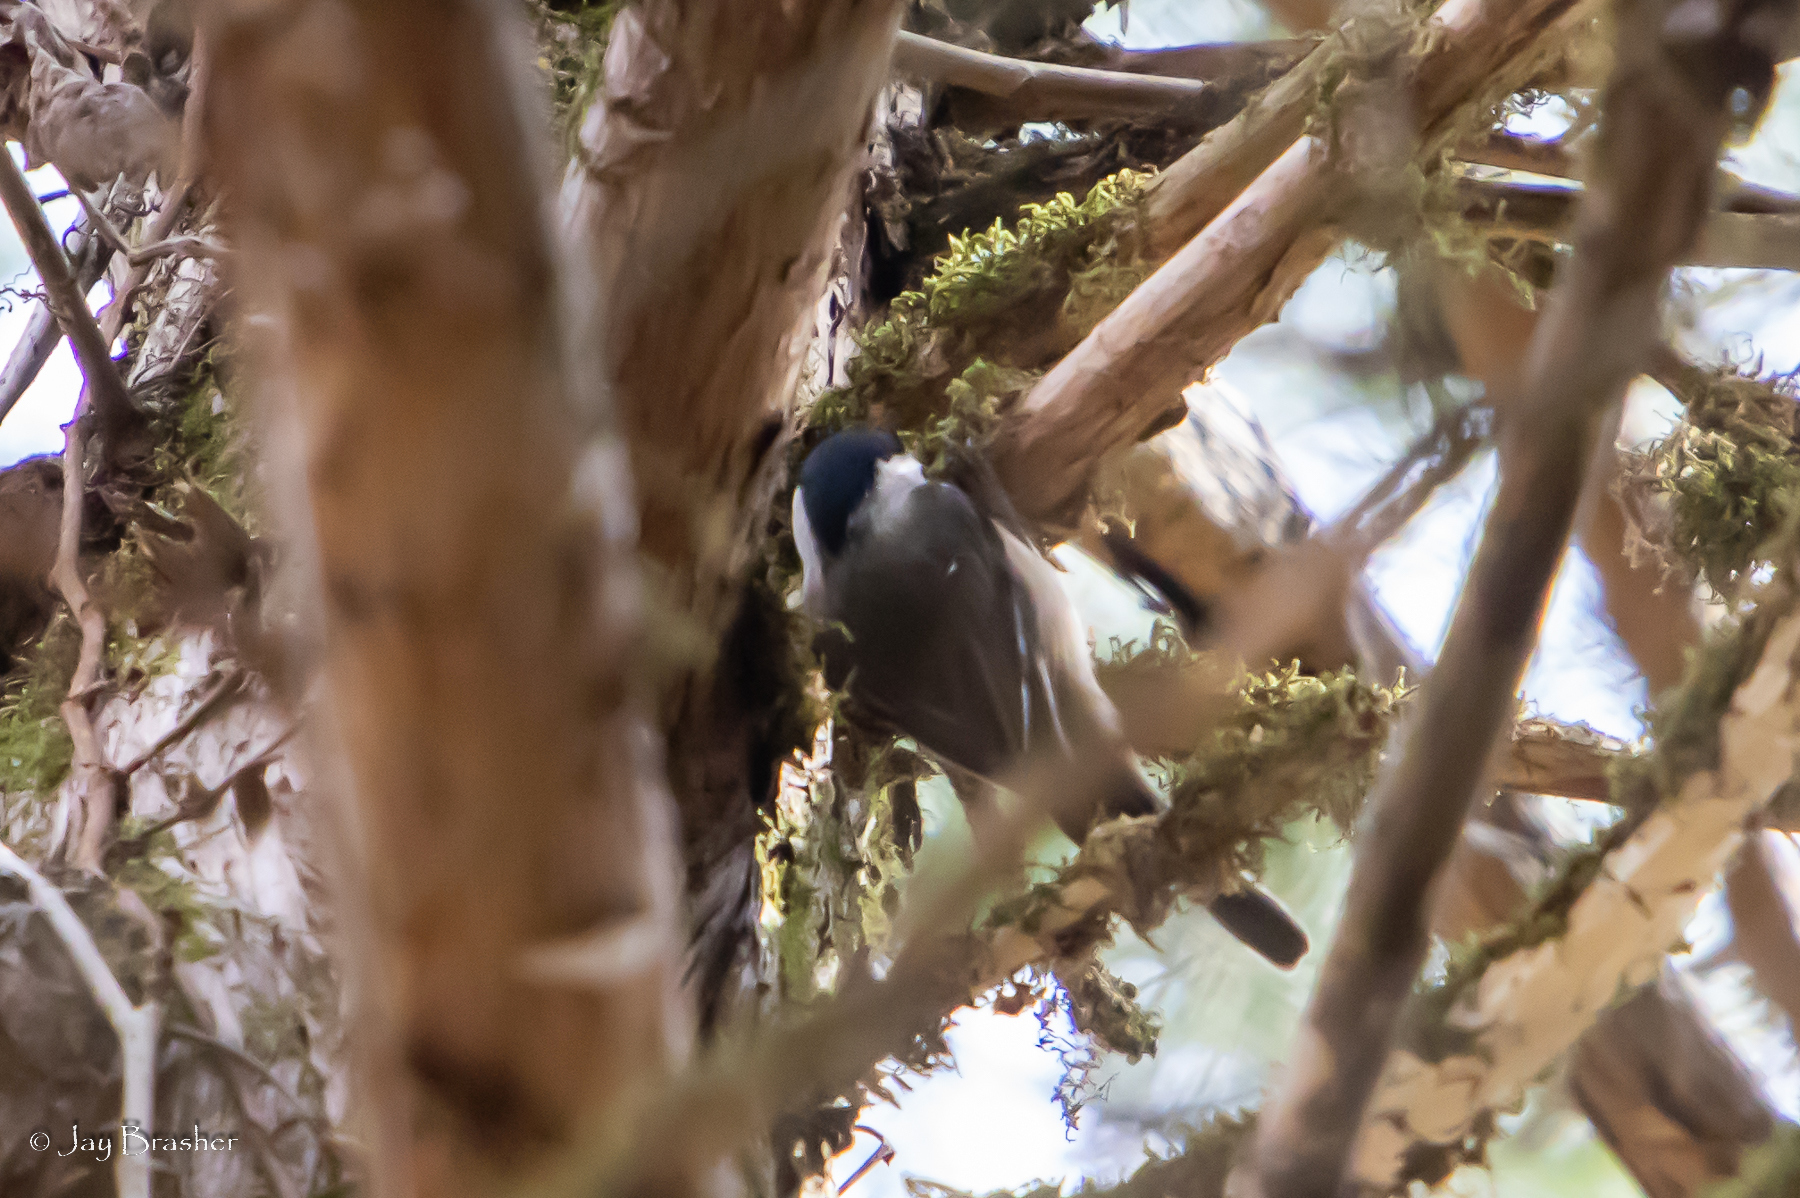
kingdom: Animalia
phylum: Chordata
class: Aves
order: Passeriformes
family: Paridae
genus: Poecile
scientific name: Poecile carolinensis
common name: Carolina chickadee
